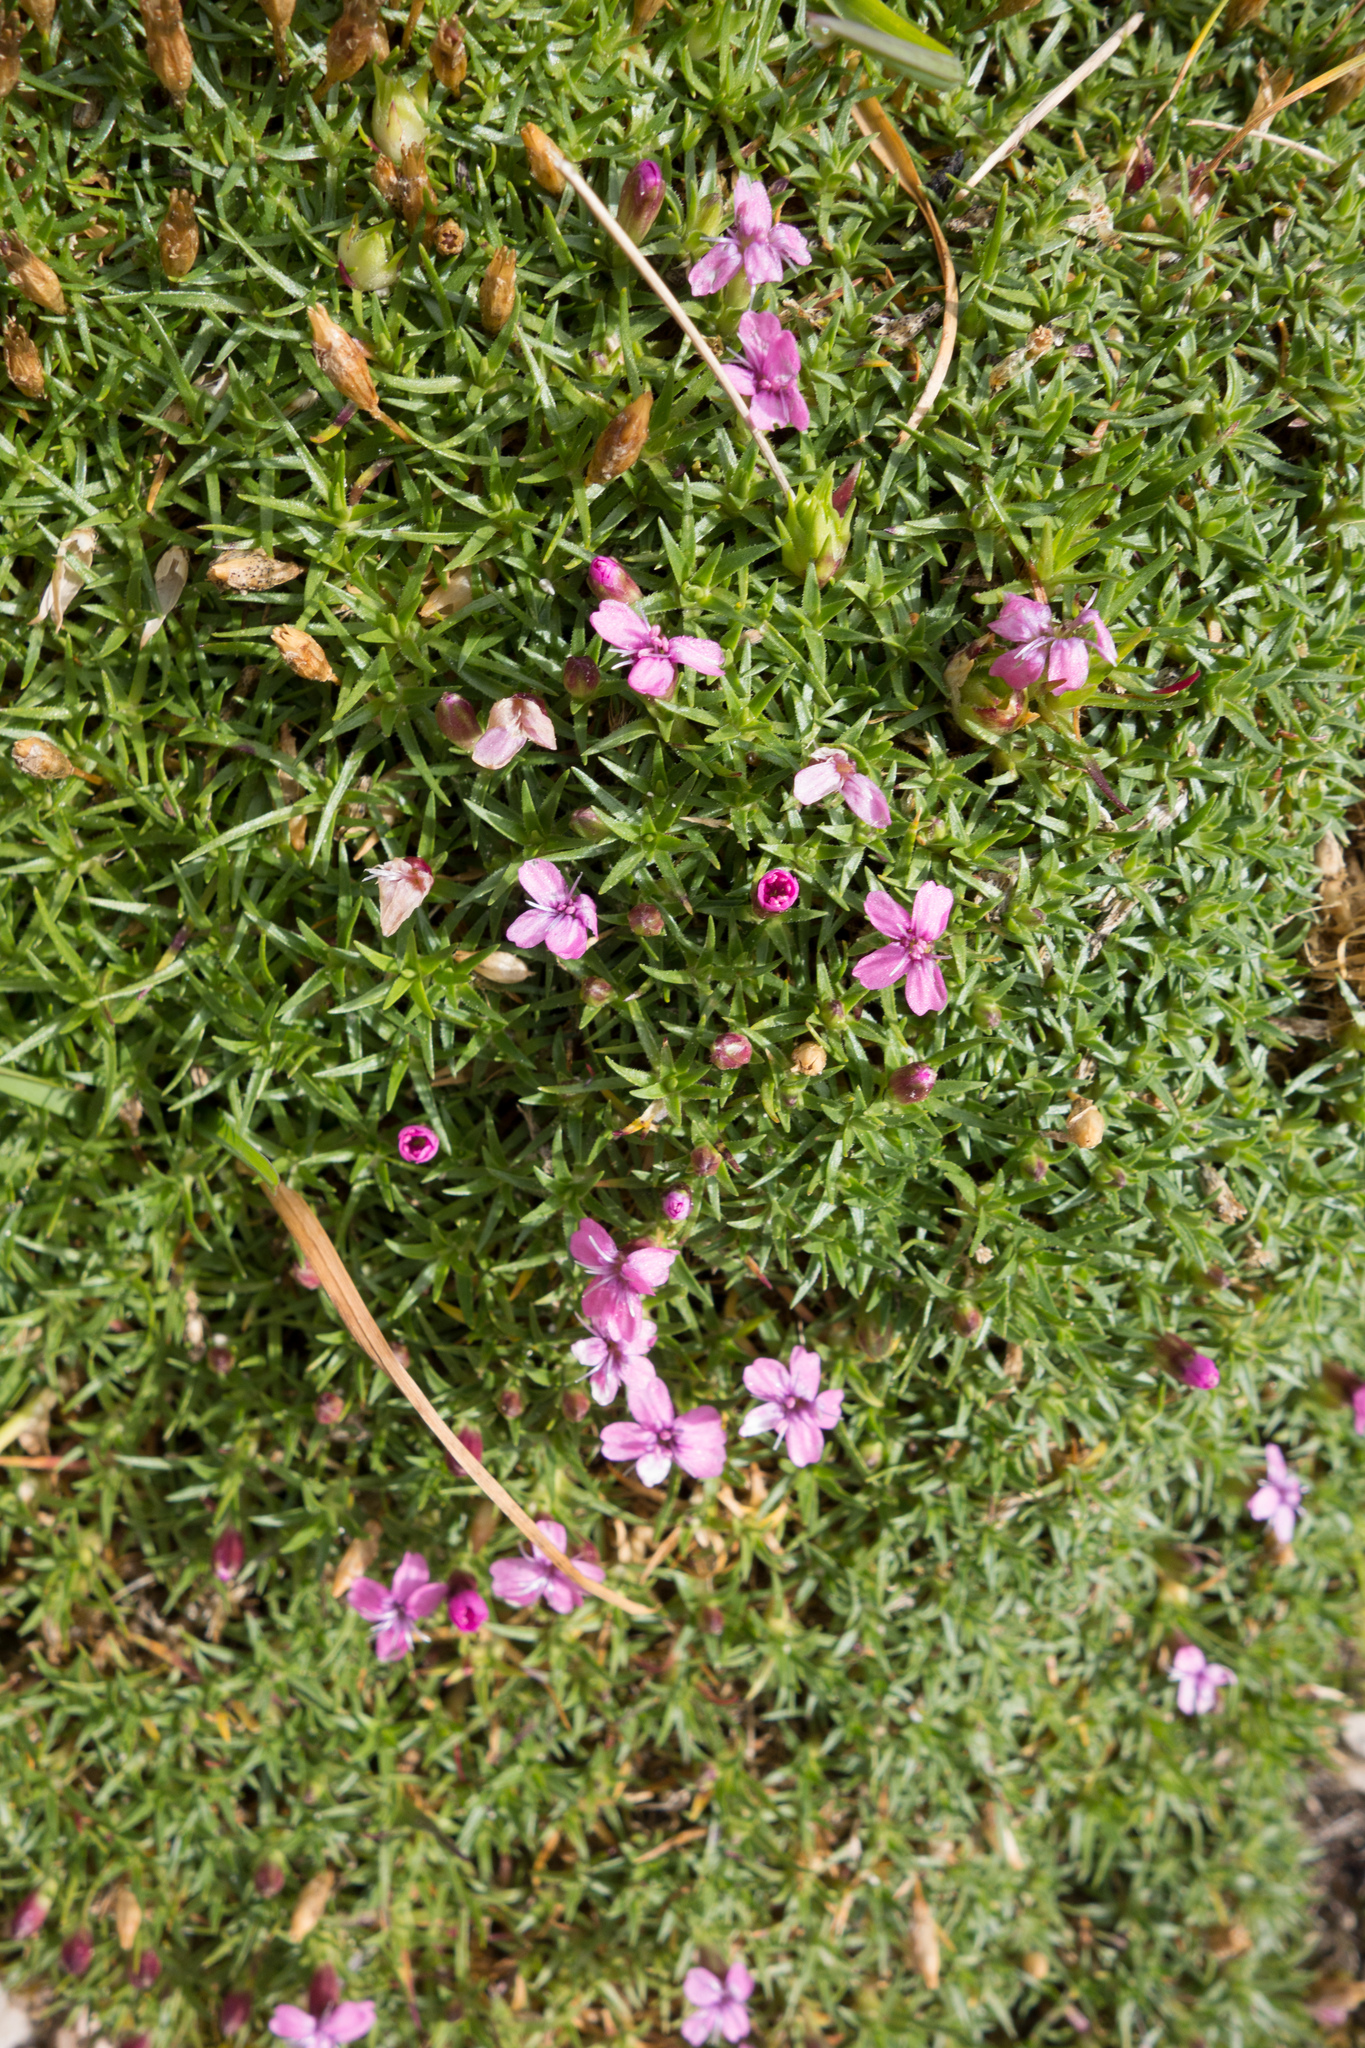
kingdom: Plantae
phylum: Tracheophyta
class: Magnoliopsida
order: Caryophyllales
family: Caryophyllaceae
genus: Silene
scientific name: Silene acaulis
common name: Moss campion
